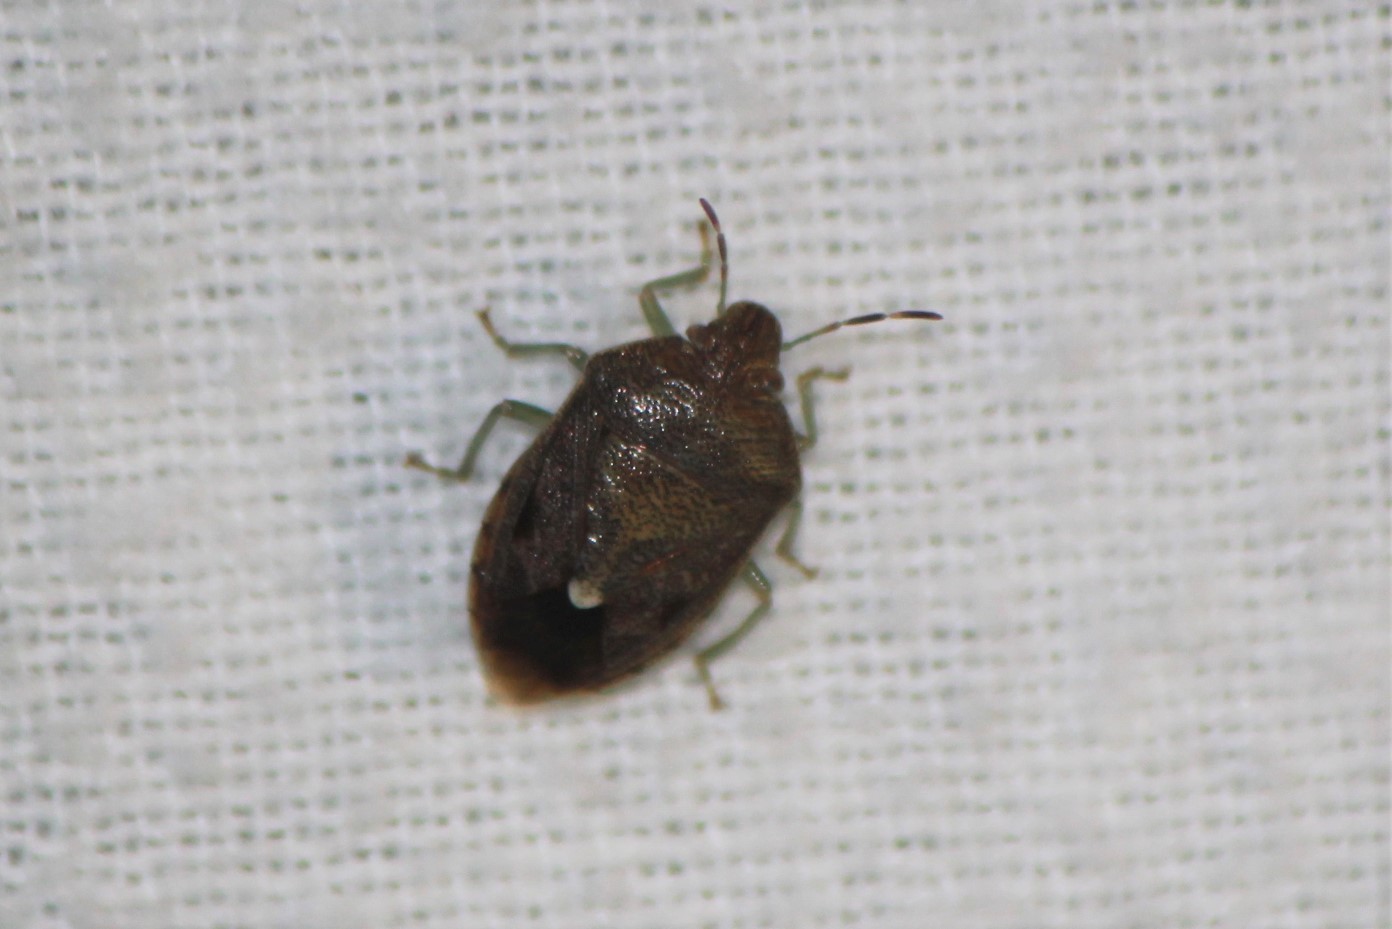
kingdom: Animalia
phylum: Arthropoda
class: Insecta
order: Hemiptera
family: Pentatomidae
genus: Banasa
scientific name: Banasa sordida
